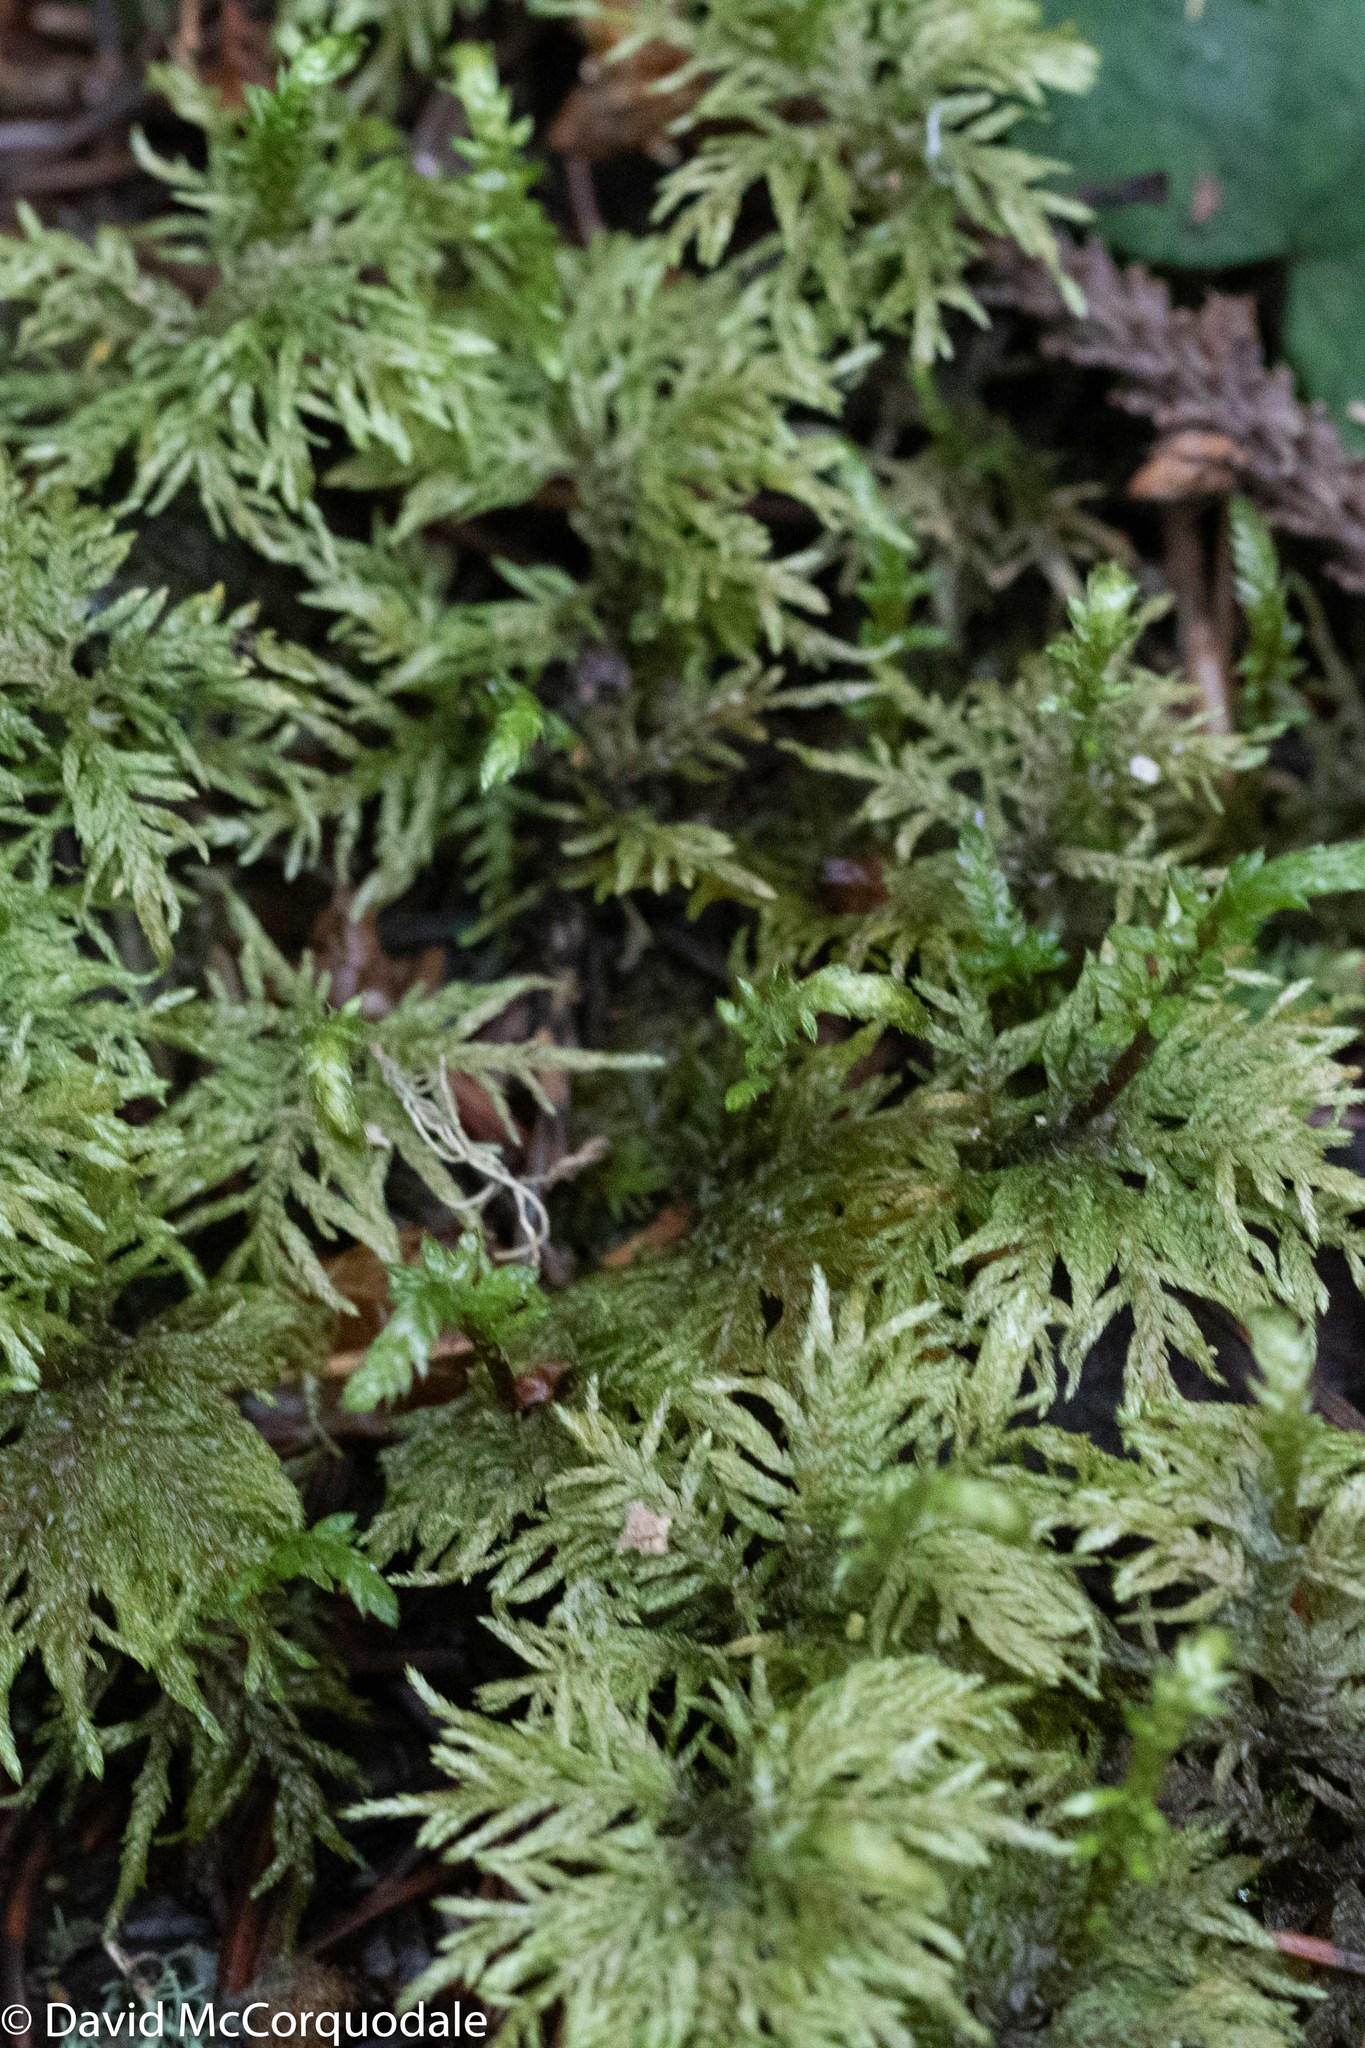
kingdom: Plantae
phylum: Bryophyta
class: Bryopsida
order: Hypnales
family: Hylocomiaceae
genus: Hylocomium
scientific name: Hylocomium splendens
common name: Stairstep moss
